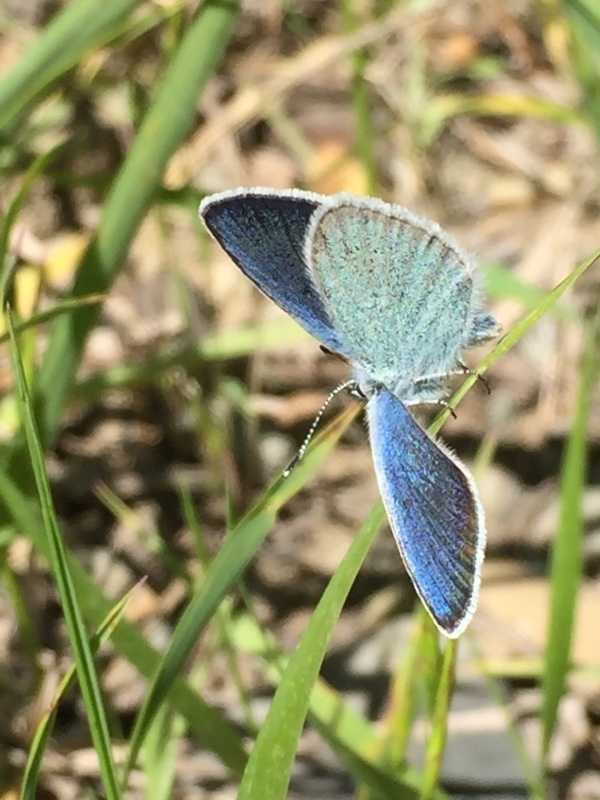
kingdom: Animalia
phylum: Arthropoda
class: Insecta
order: Lepidoptera
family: Lycaenidae
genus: Agrodiaetus
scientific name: Agrodiaetus Neolysandra coelestina
